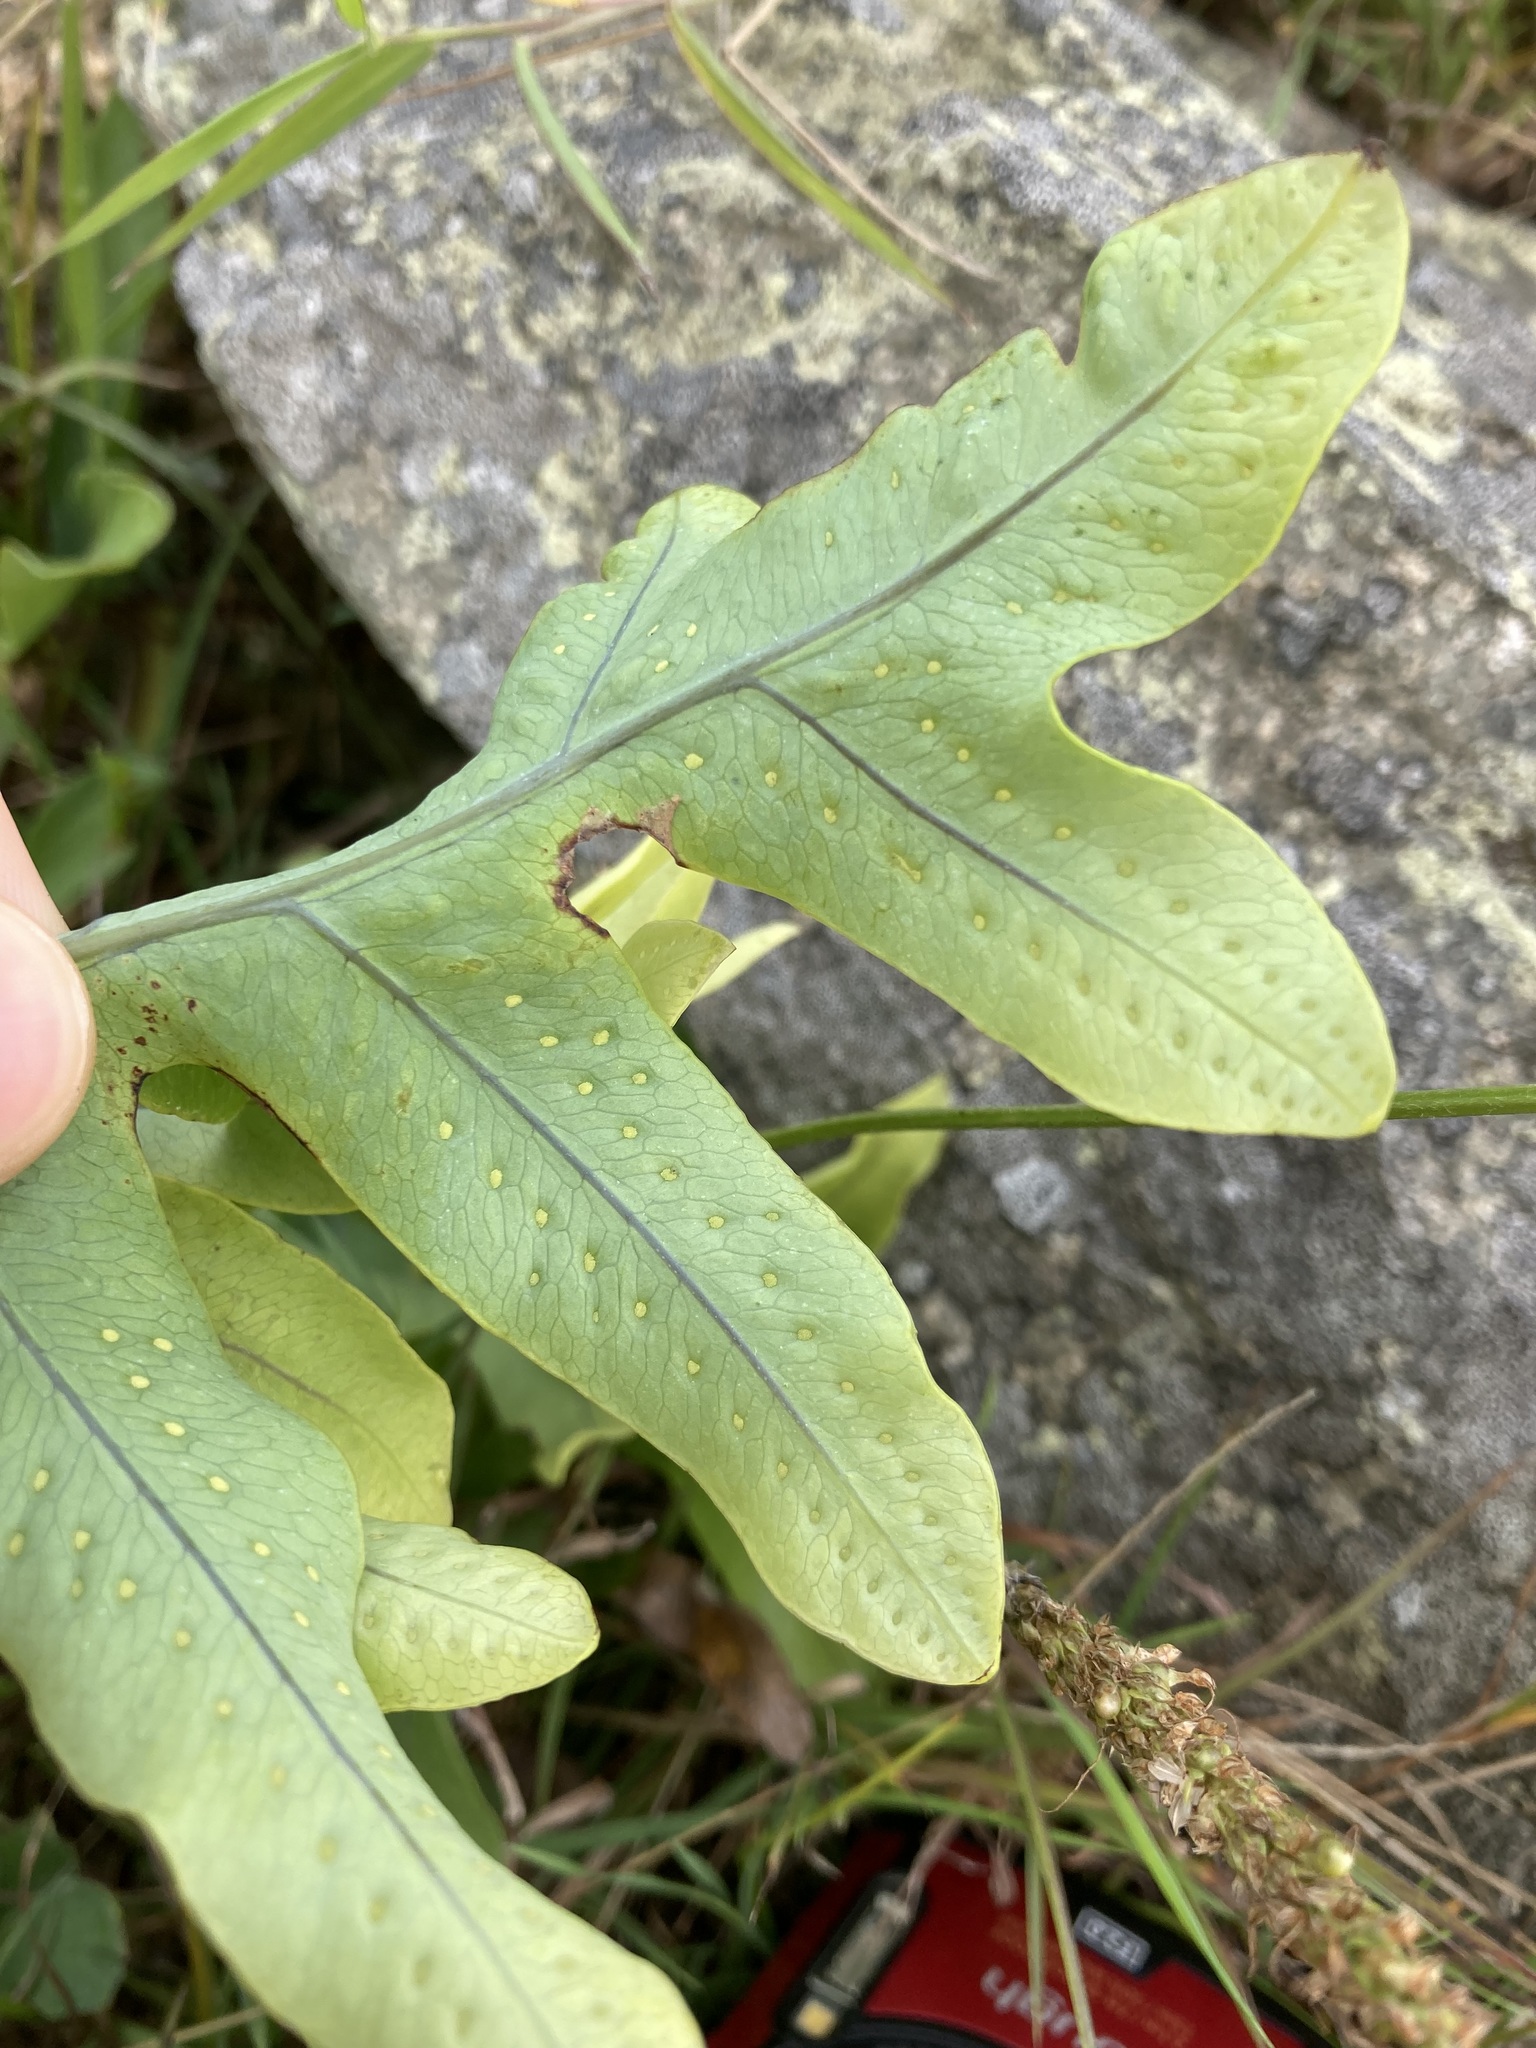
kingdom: Plantae
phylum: Tracheophyta
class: Polypodiopsida
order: Polypodiales
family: Polypodiaceae
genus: Phlebodium
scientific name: Phlebodium aureum
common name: Gold-foot fern
